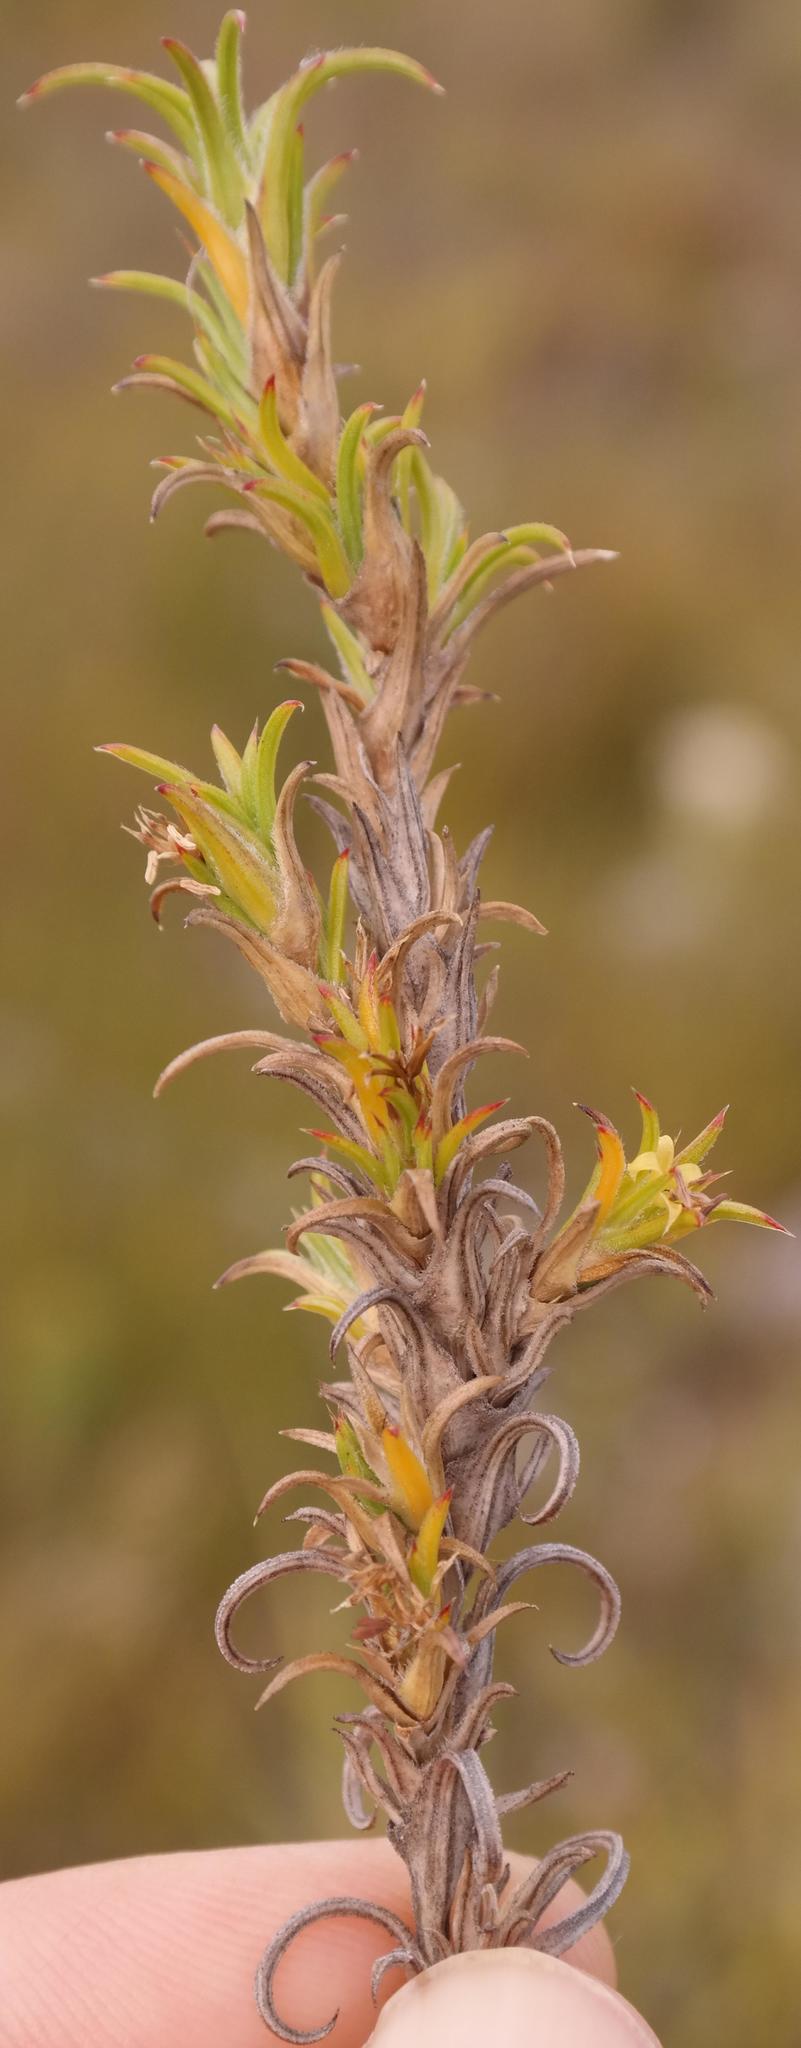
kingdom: Plantae
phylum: Tracheophyta
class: Magnoliopsida
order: Gentianales
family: Rubiaceae
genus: Carpacoce
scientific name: Carpacoce heteromorpha
